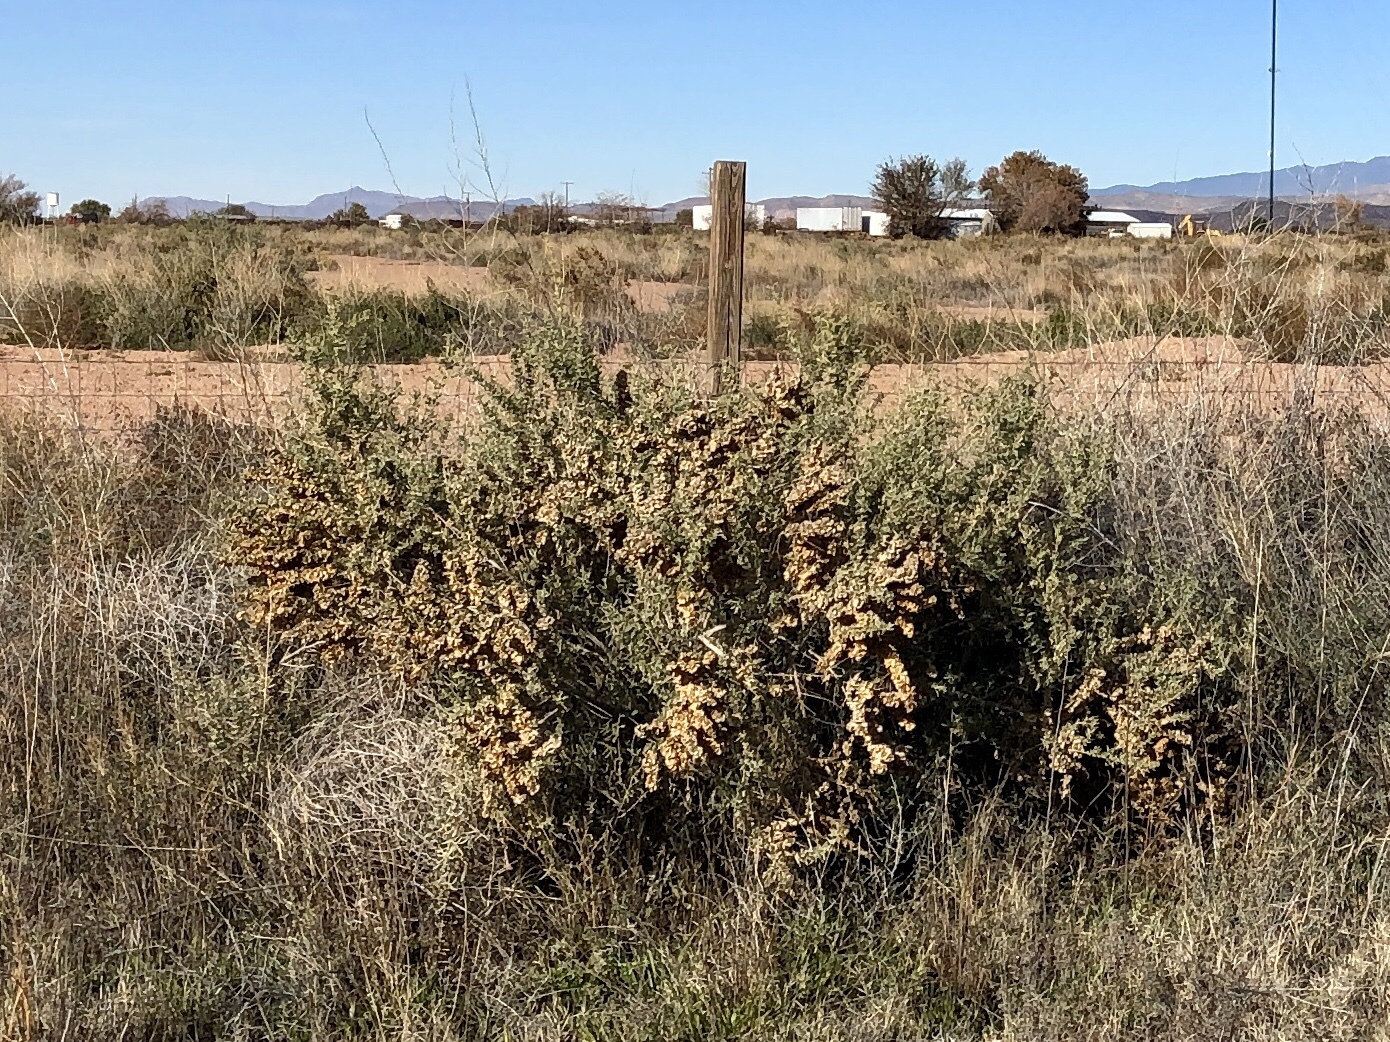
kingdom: Plantae
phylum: Tracheophyta
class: Magnoliopsida
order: Caryophyllales
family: Amaranthaceae
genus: Atriplex
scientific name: Atriplex canescens
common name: Four-wing saltbush
